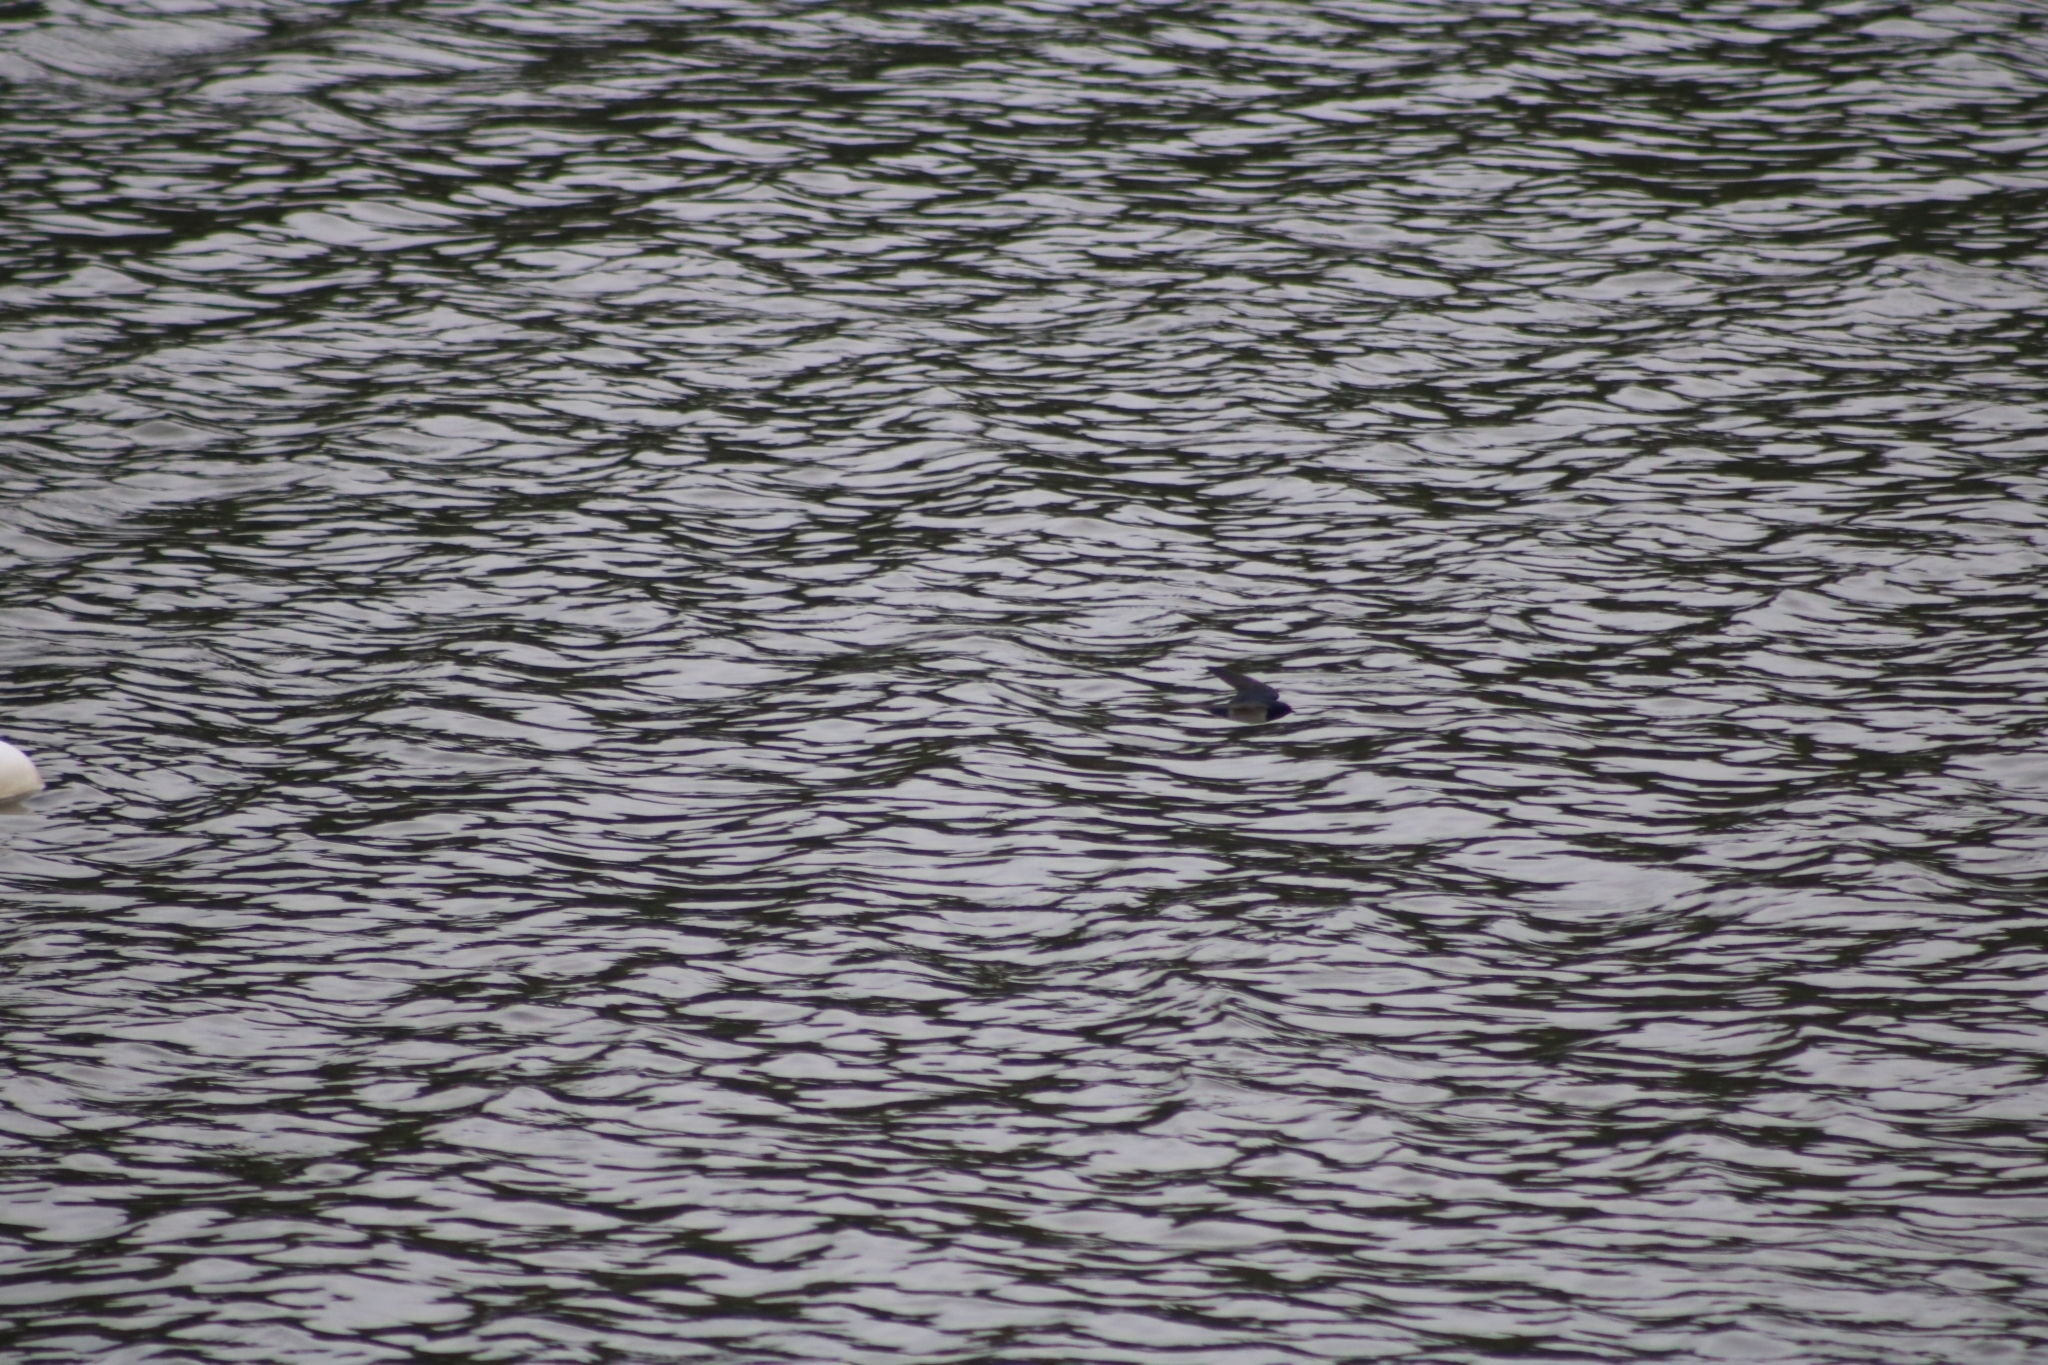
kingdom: Animalia
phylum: Chordata
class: Aves
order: Passeriformes
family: Hirundinidae
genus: Hirundo
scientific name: Hirundo rustica
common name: Barn swallow
